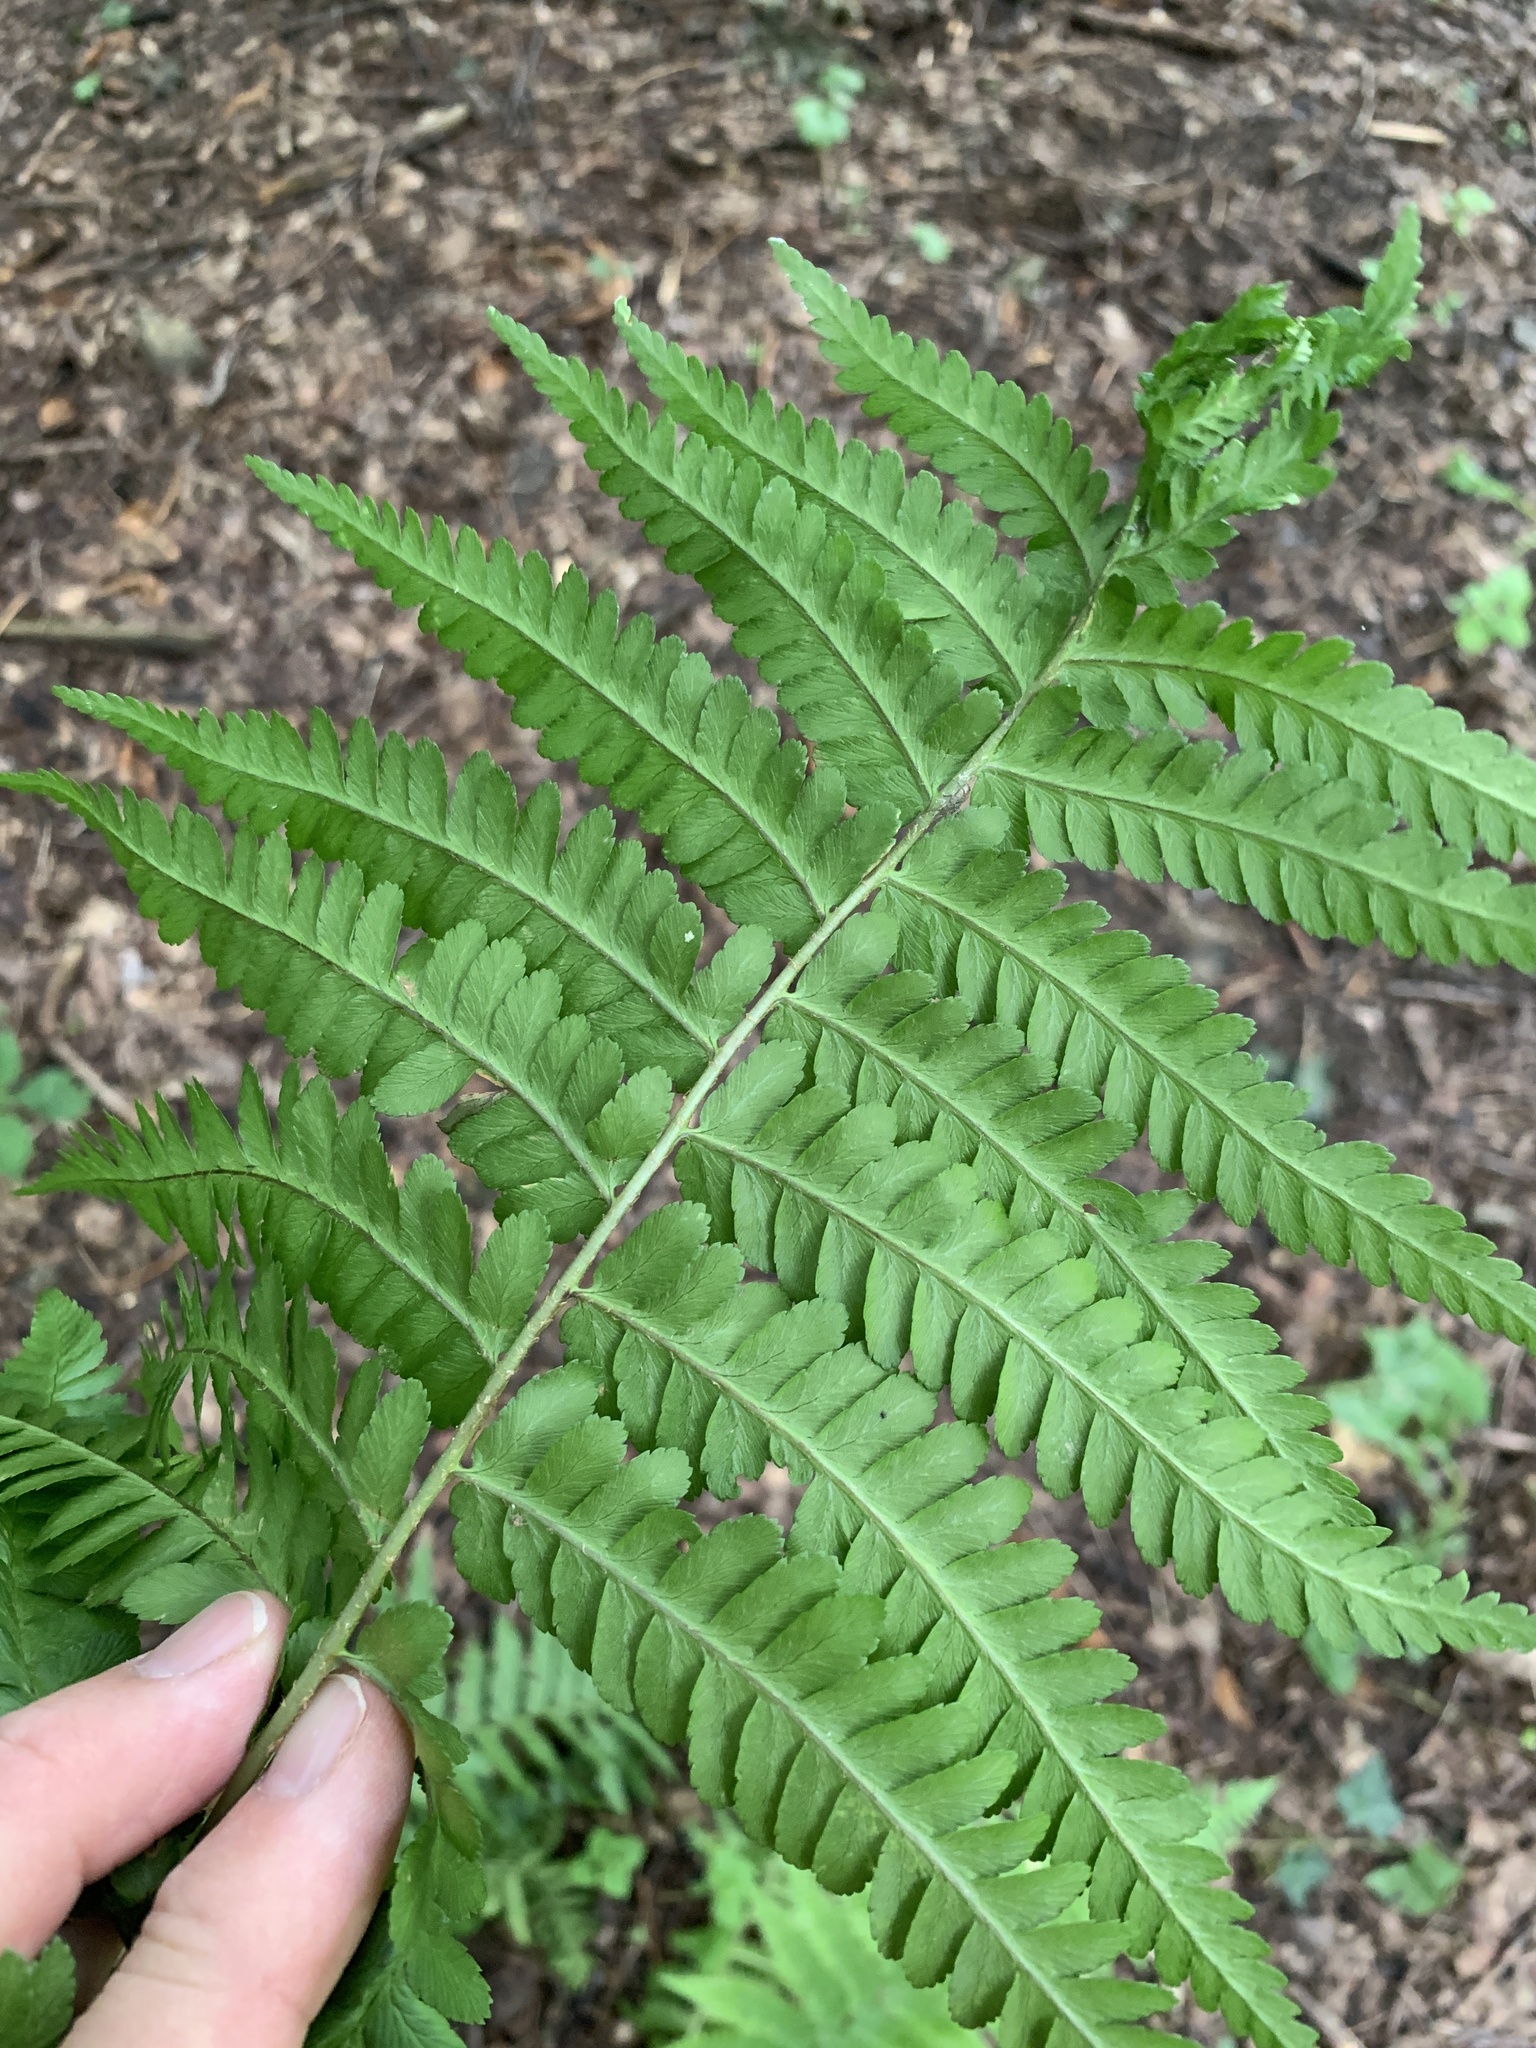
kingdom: Plantae
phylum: Tracheophyta
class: Polypodiopsida
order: Polypodiales
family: Dryopteridaceae
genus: Dryopteris
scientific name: Dryopteris filix-mas
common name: Male fern
